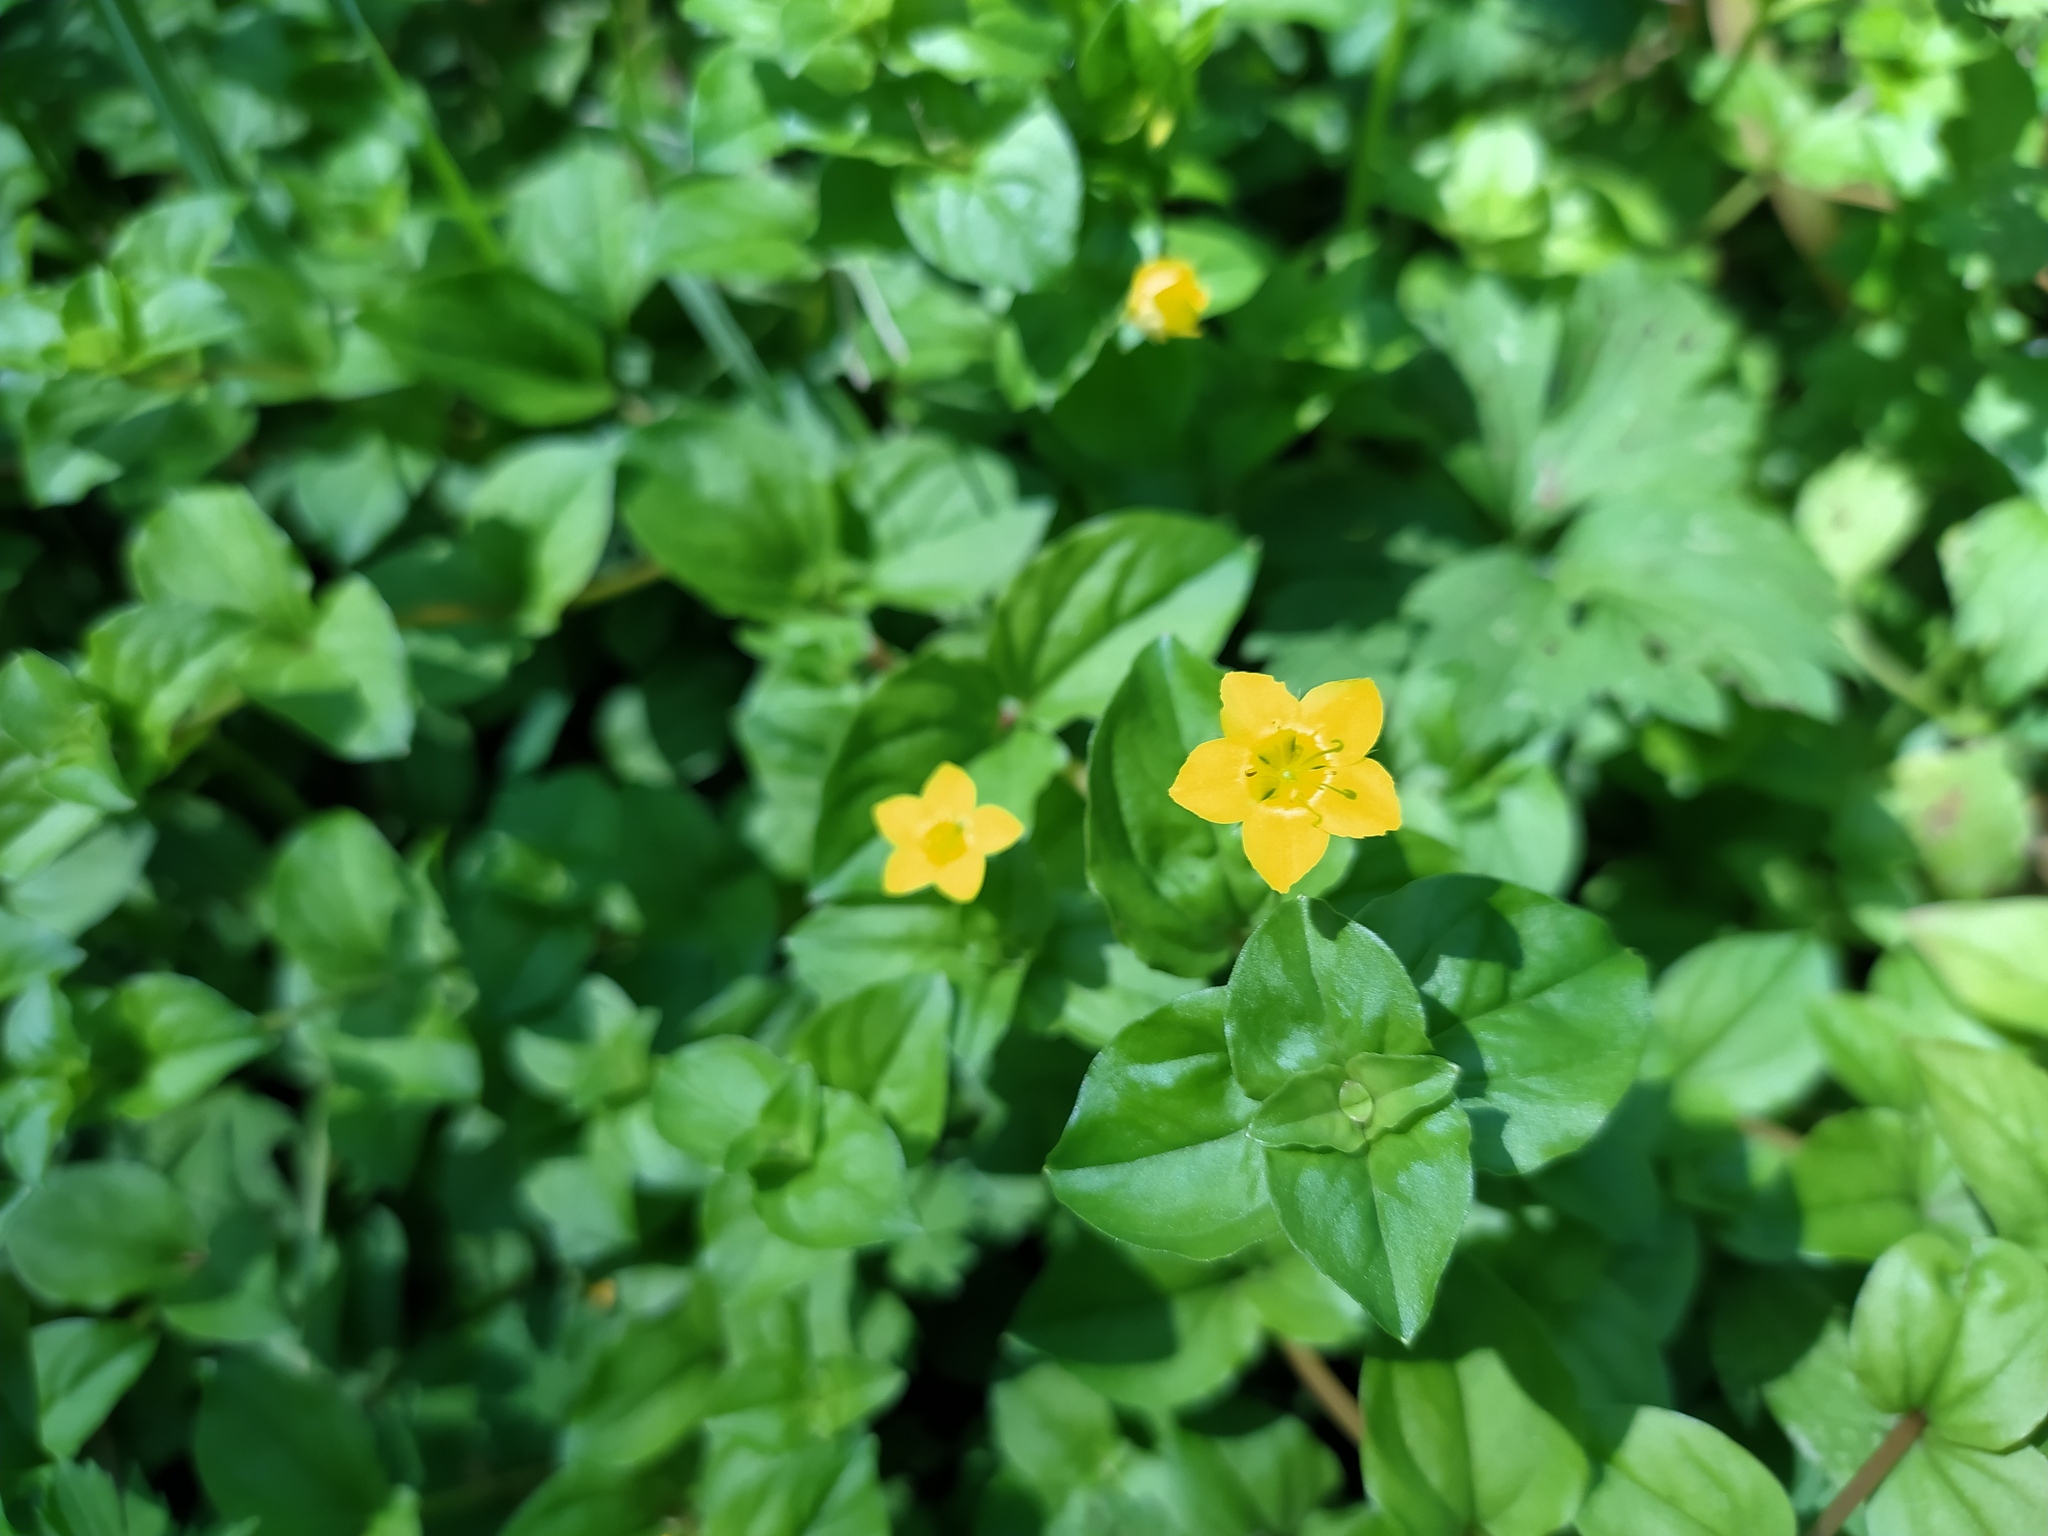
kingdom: Plantae
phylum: Tracheophyta
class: Magnoliopsida
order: Ericales
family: Primulaceae
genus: Lysimachia
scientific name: Lysimachia nemorum
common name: Yellow pimpernel
